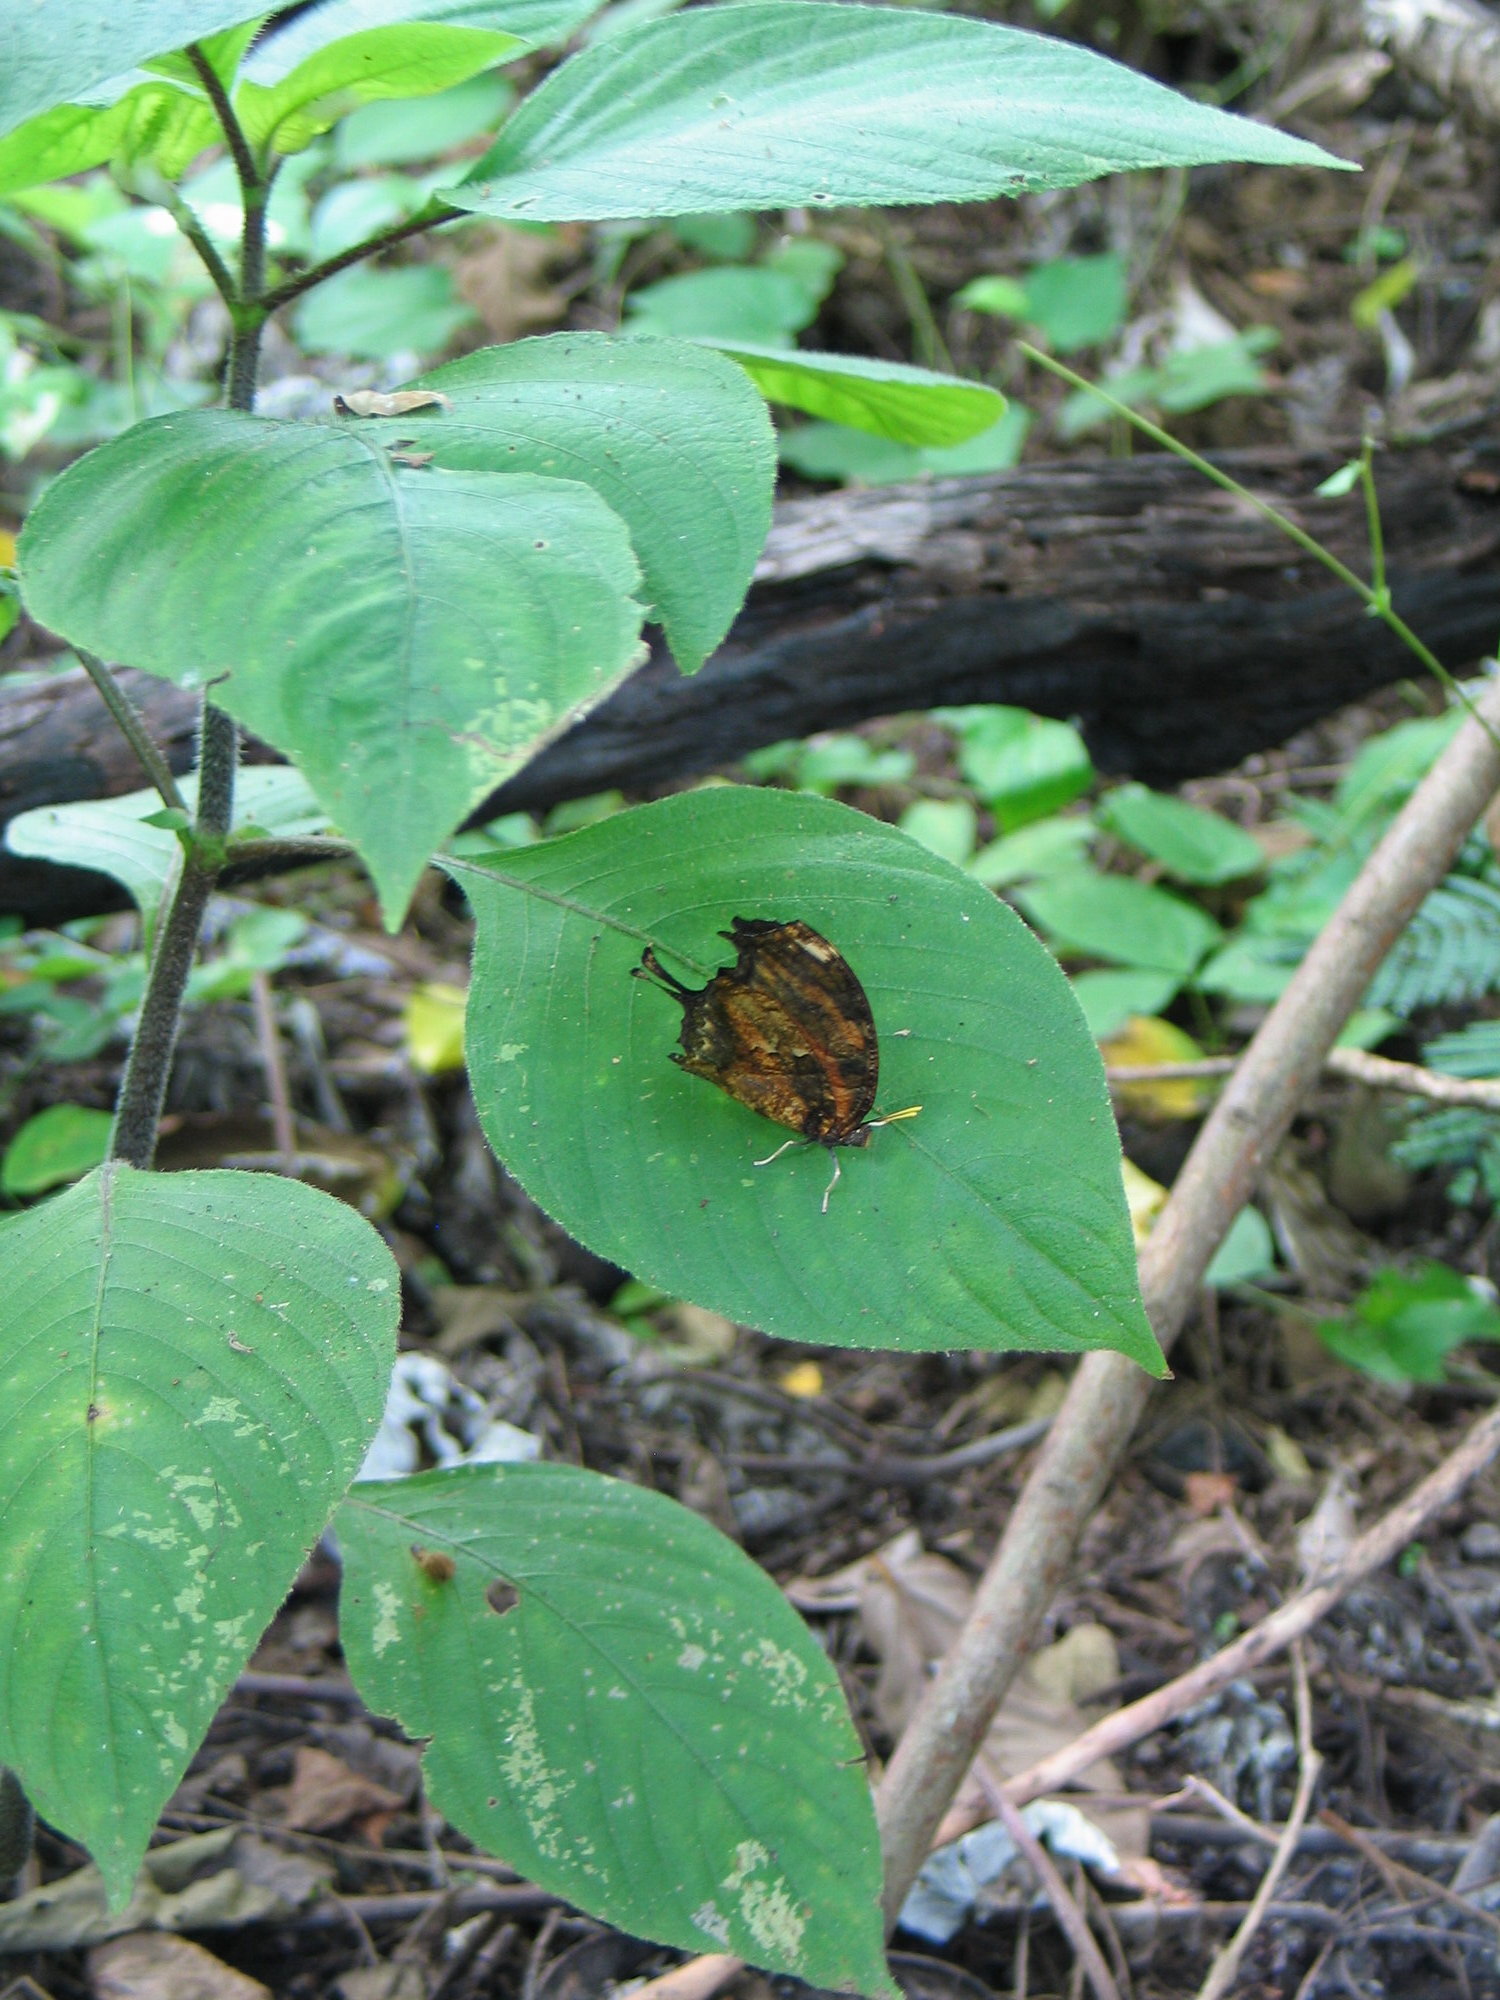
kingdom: Animalia
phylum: Arthropoda
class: Insecta
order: Lepidoptera
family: Nymphalidae
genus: Consul
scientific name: Consul fabius
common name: Tiger leafwing
